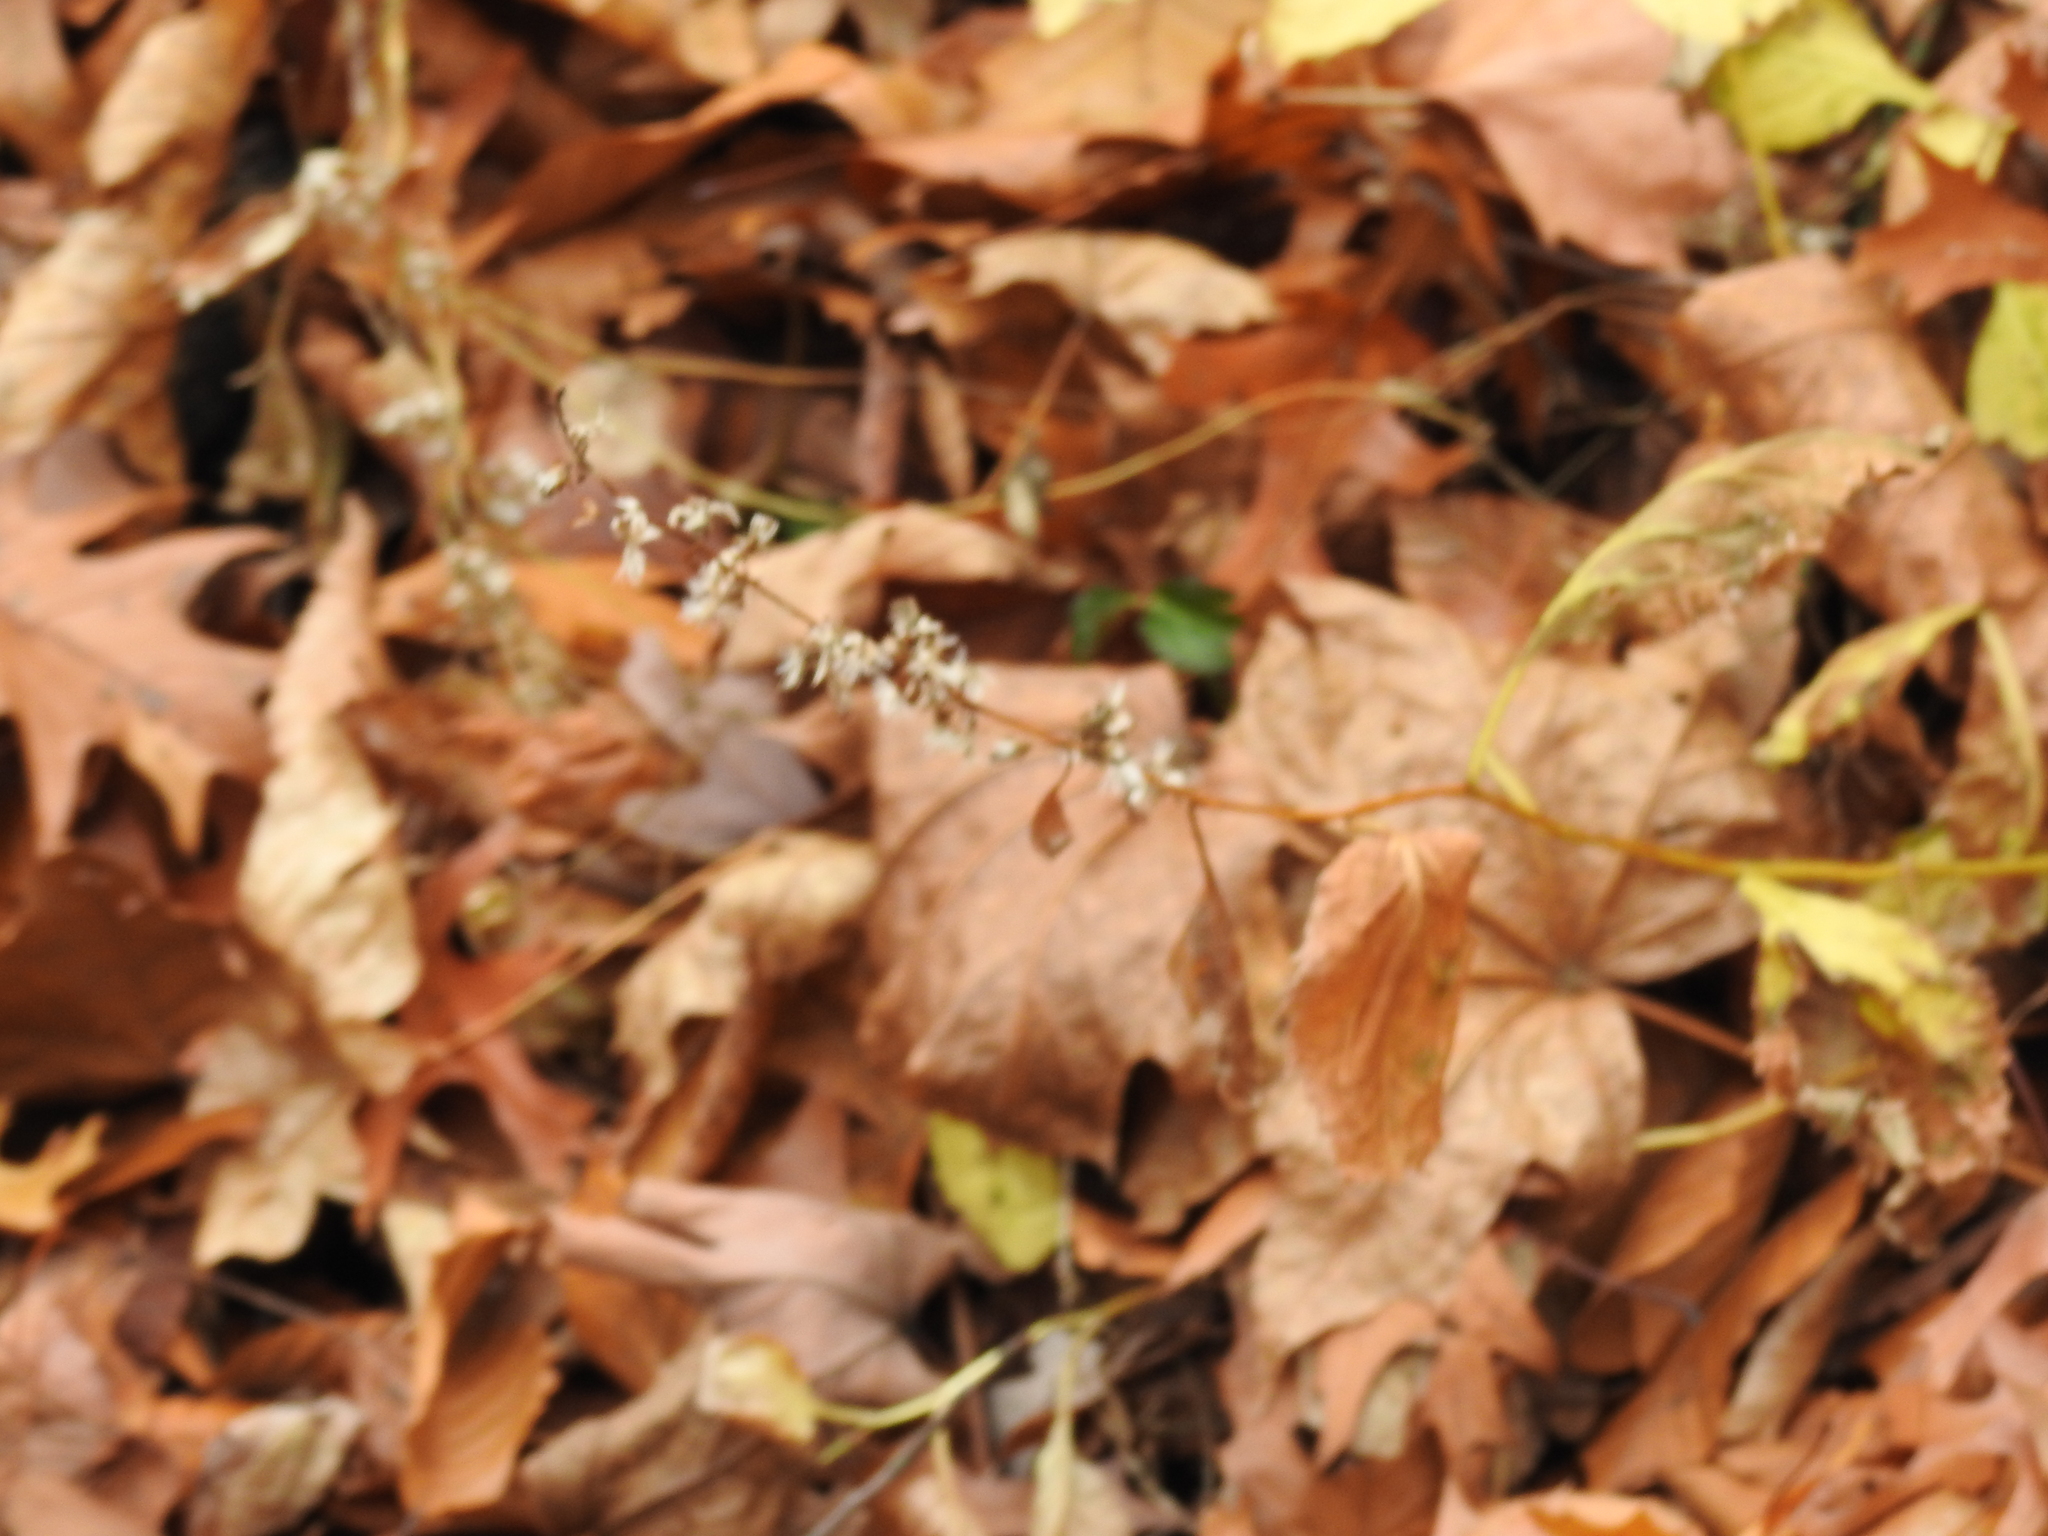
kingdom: Plantae
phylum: Tracheophyta
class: Magnoliopsida
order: Asterales
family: Asteraceae
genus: Solidago
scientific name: Solidago flexicaulis
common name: Zig-zag goldenrod
